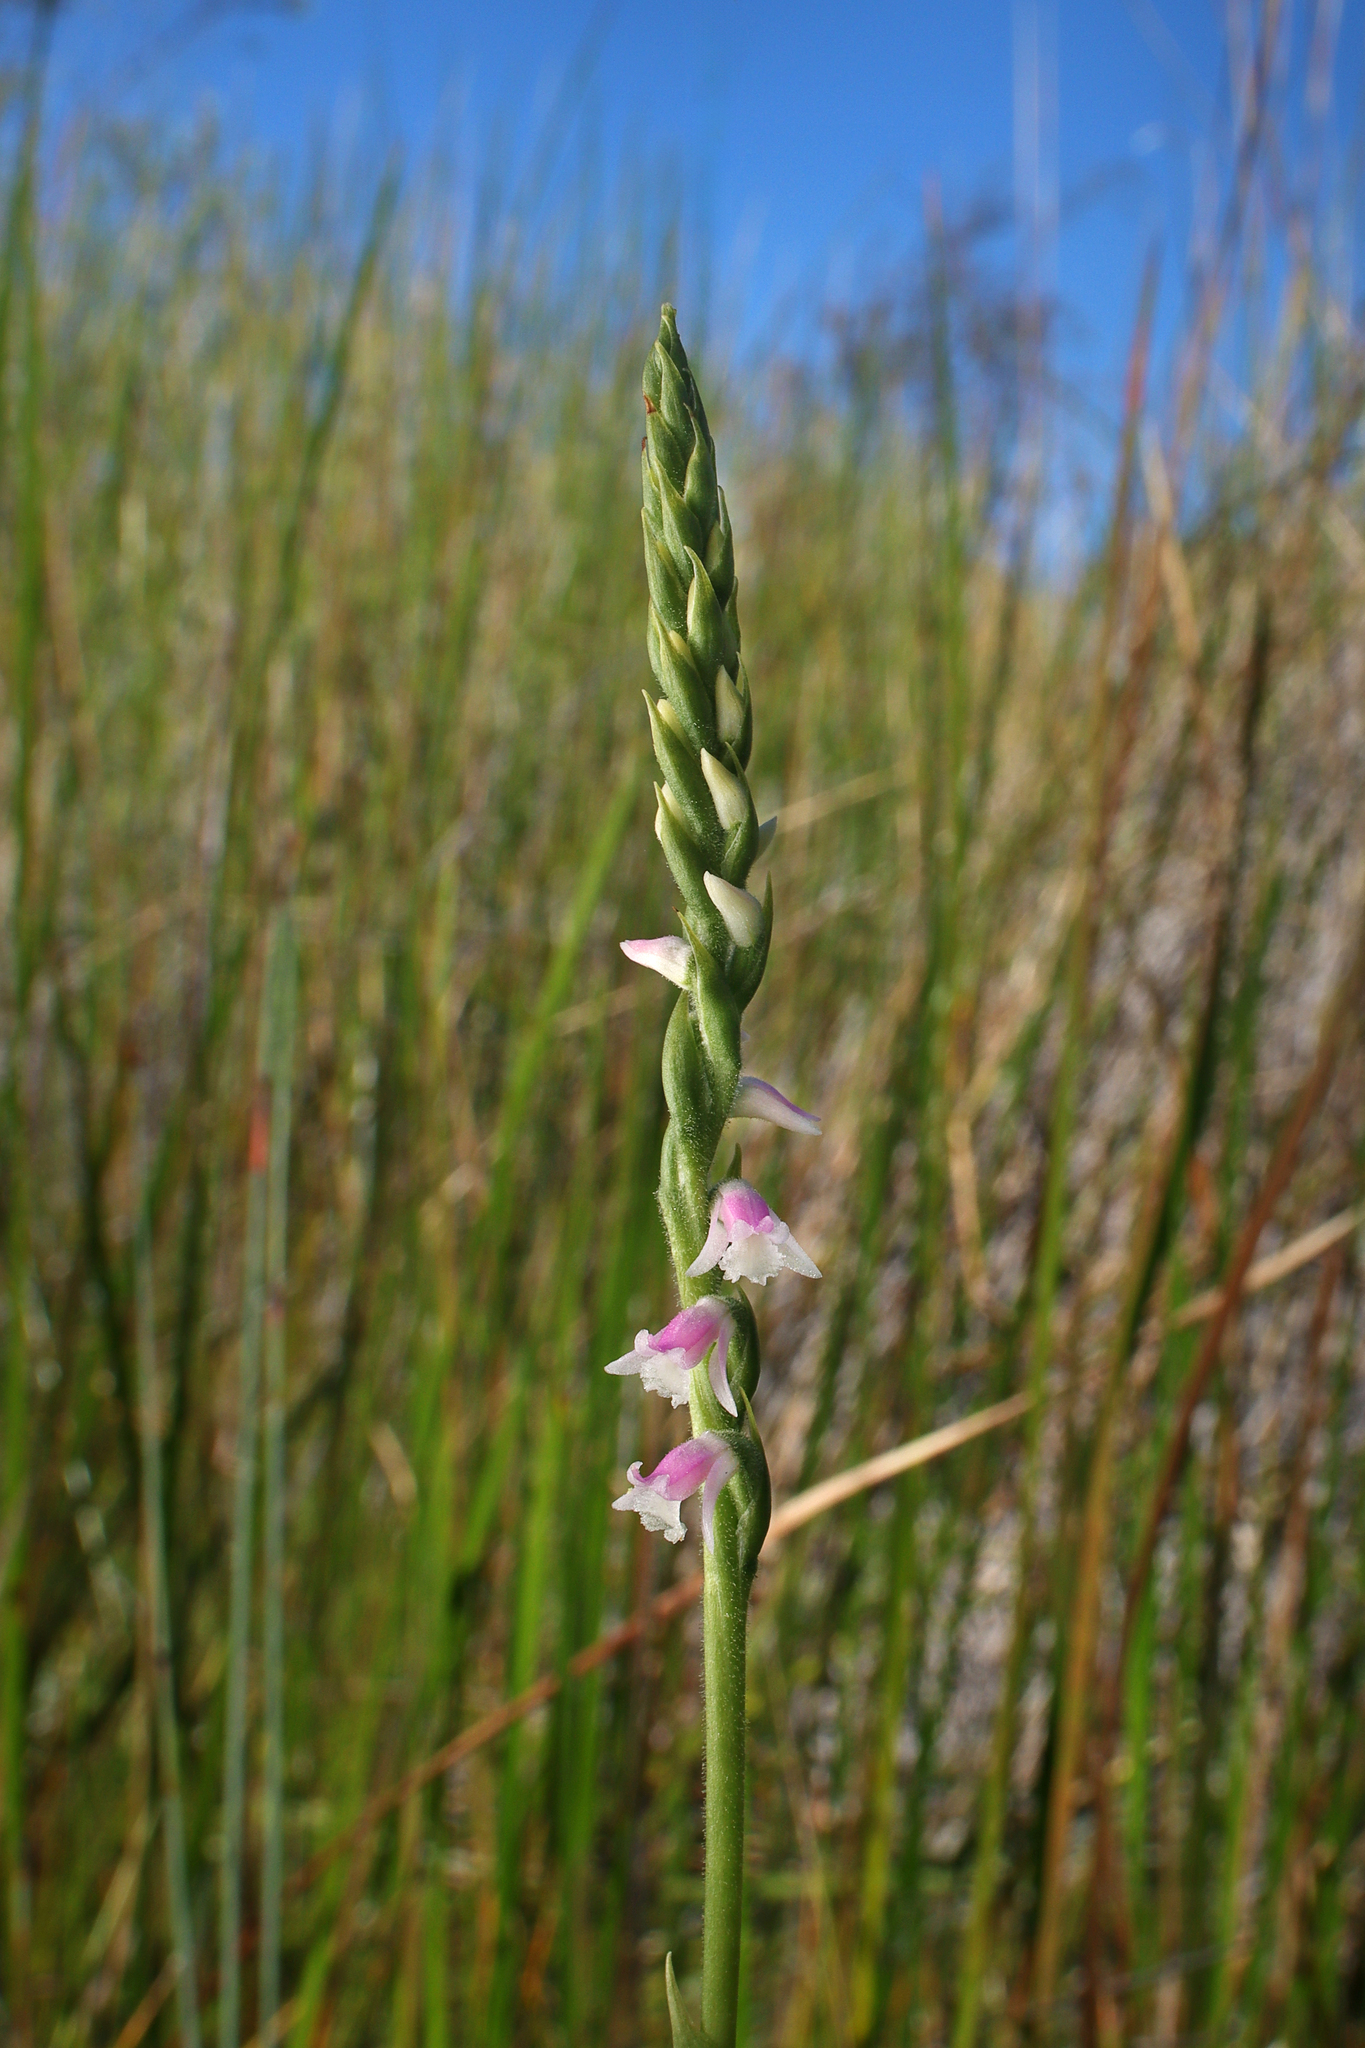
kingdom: Plantae
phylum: Tracheophyta
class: Liliopsida
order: Asparagales
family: Orchidaceae
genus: Spiranthes
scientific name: Spiranthes australis
